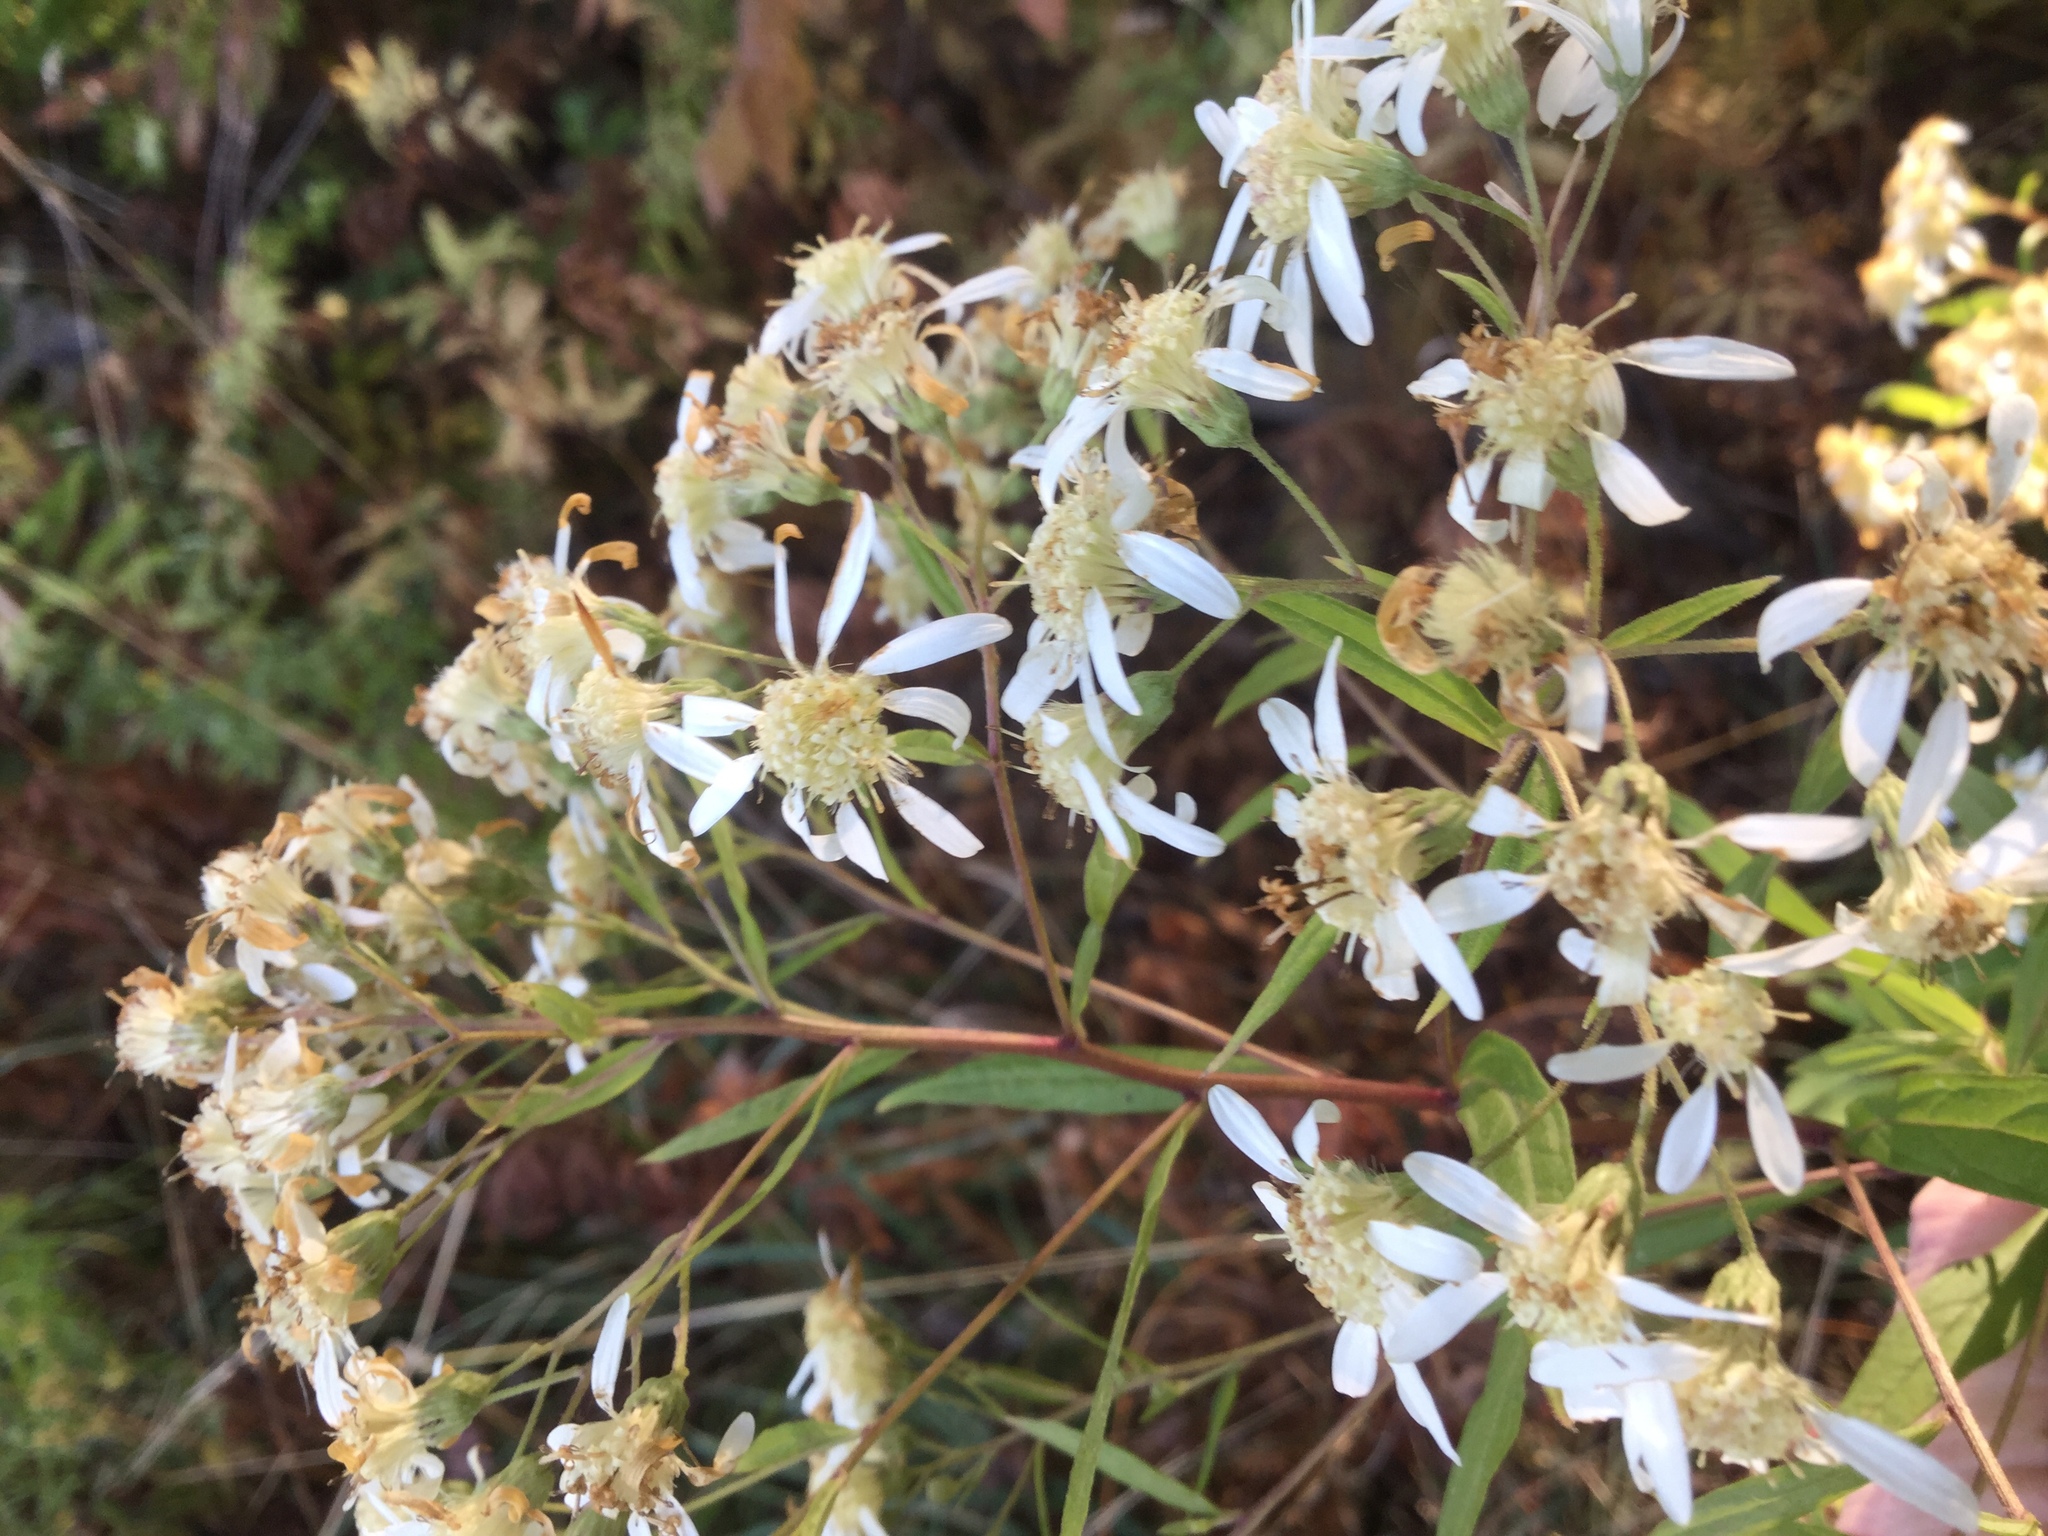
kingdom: Plantae
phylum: Tracheophyta
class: Magnoliopsida
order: Asterales
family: Asteraceae
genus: Doellingeria
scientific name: Doellingeria umbellata
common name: Flat-top white aster
